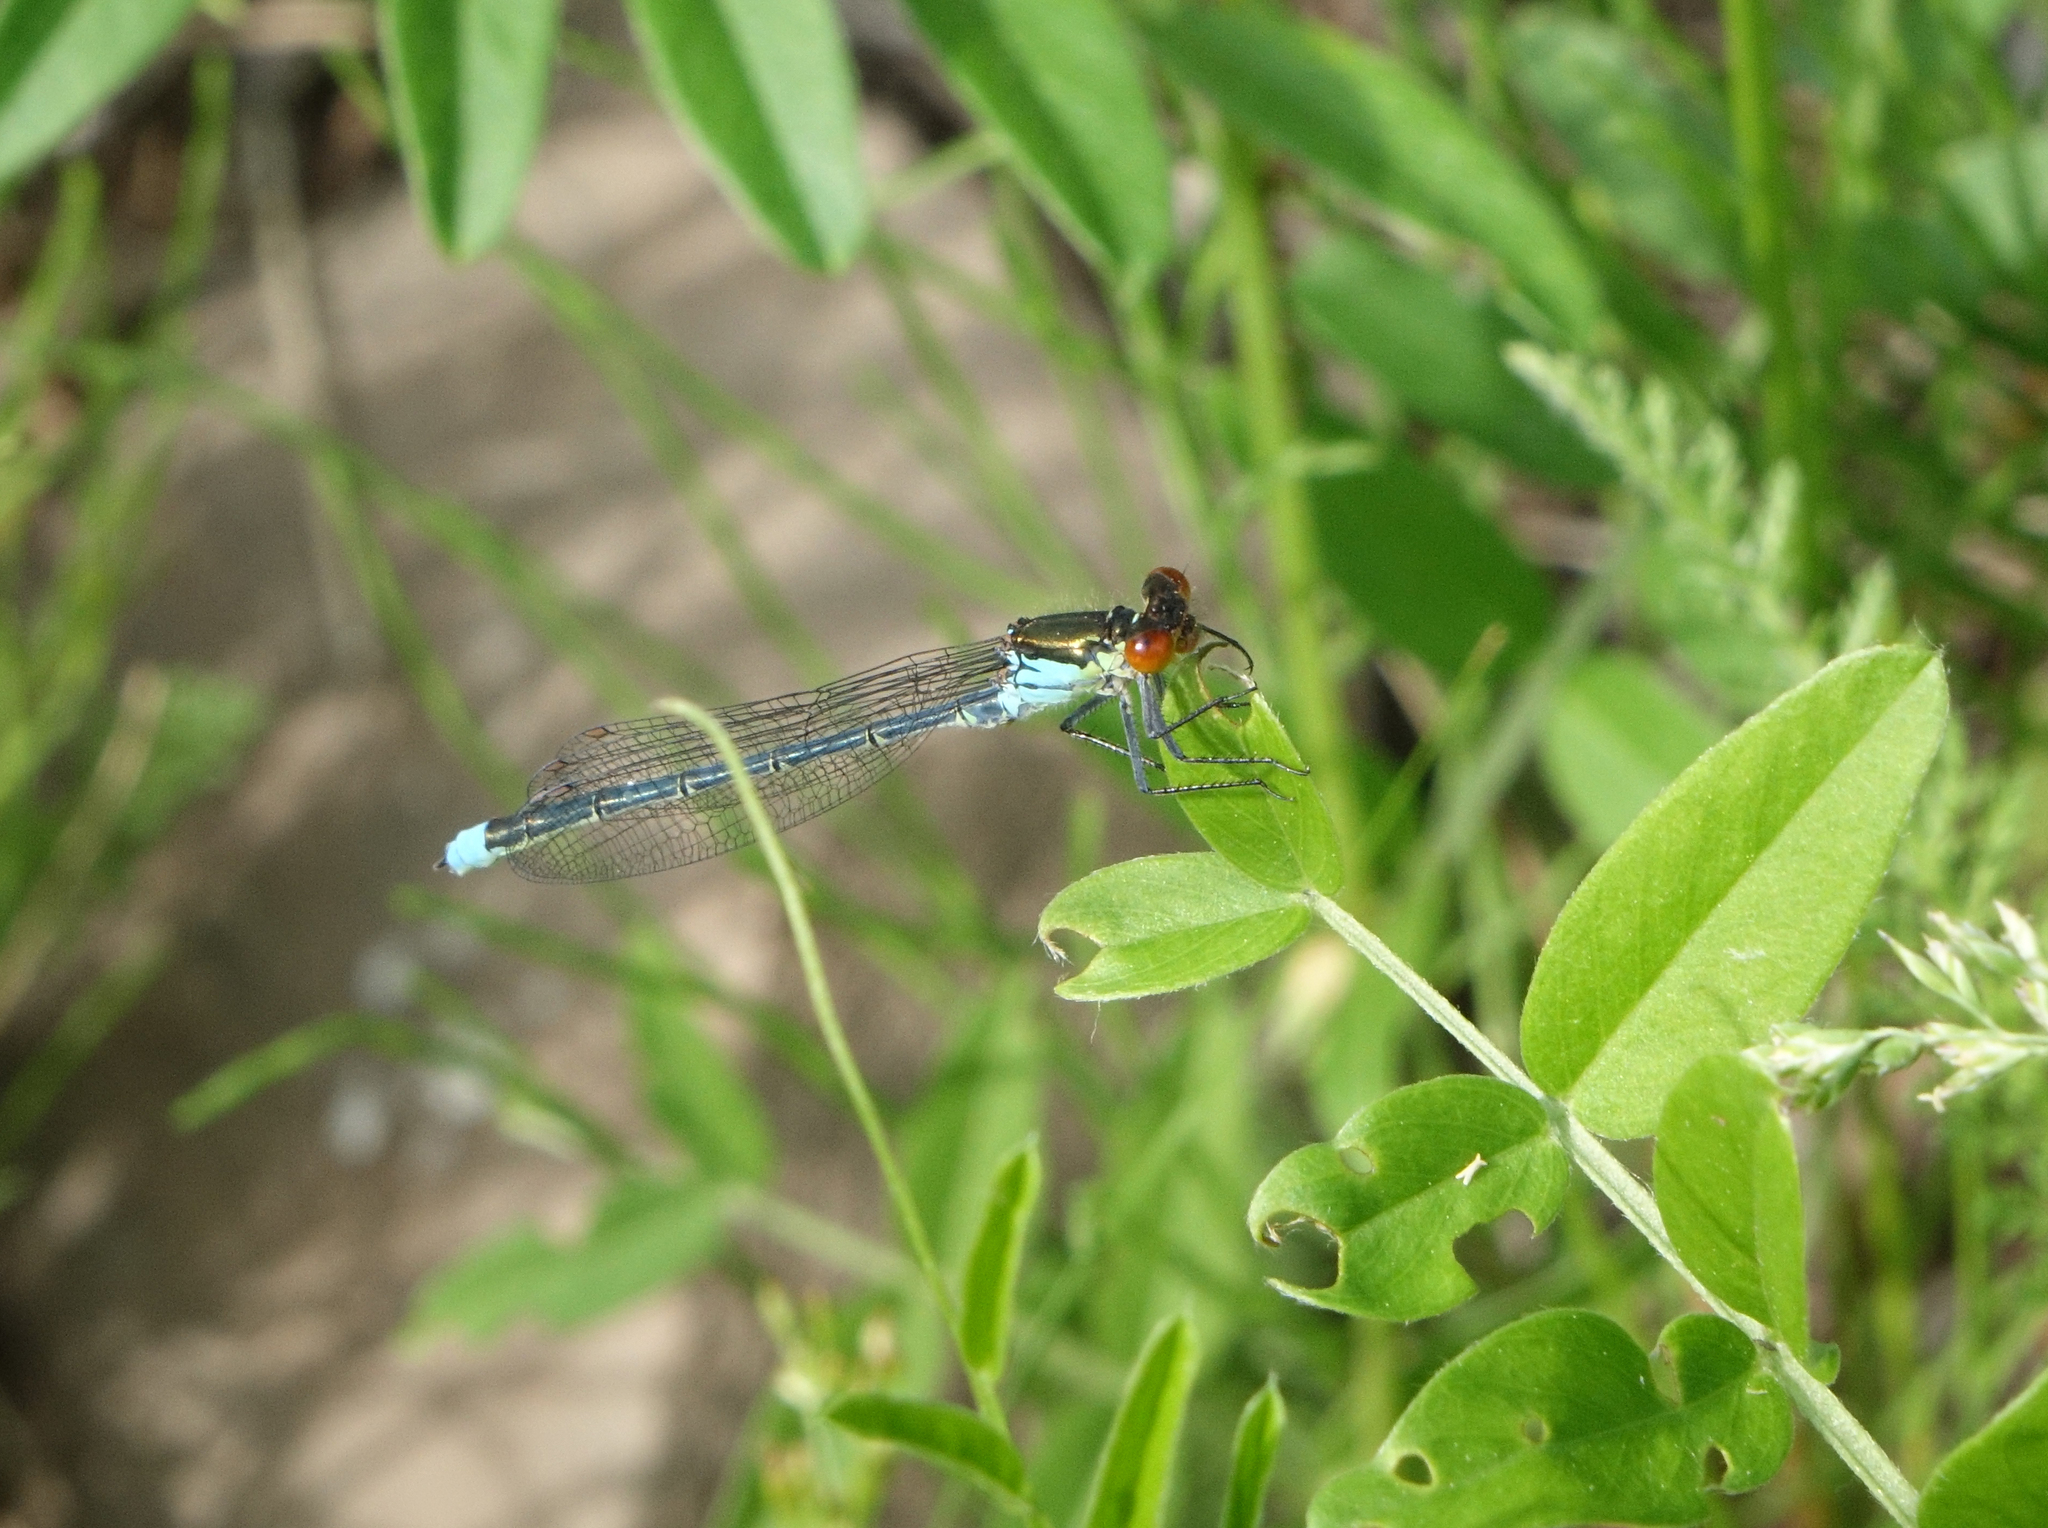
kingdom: Animalia
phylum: Arthropoda
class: Insecta
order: Odonata
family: Coenagrionidae
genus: Erythromma
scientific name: Erythromma najas
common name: Red-eyed damselfly
